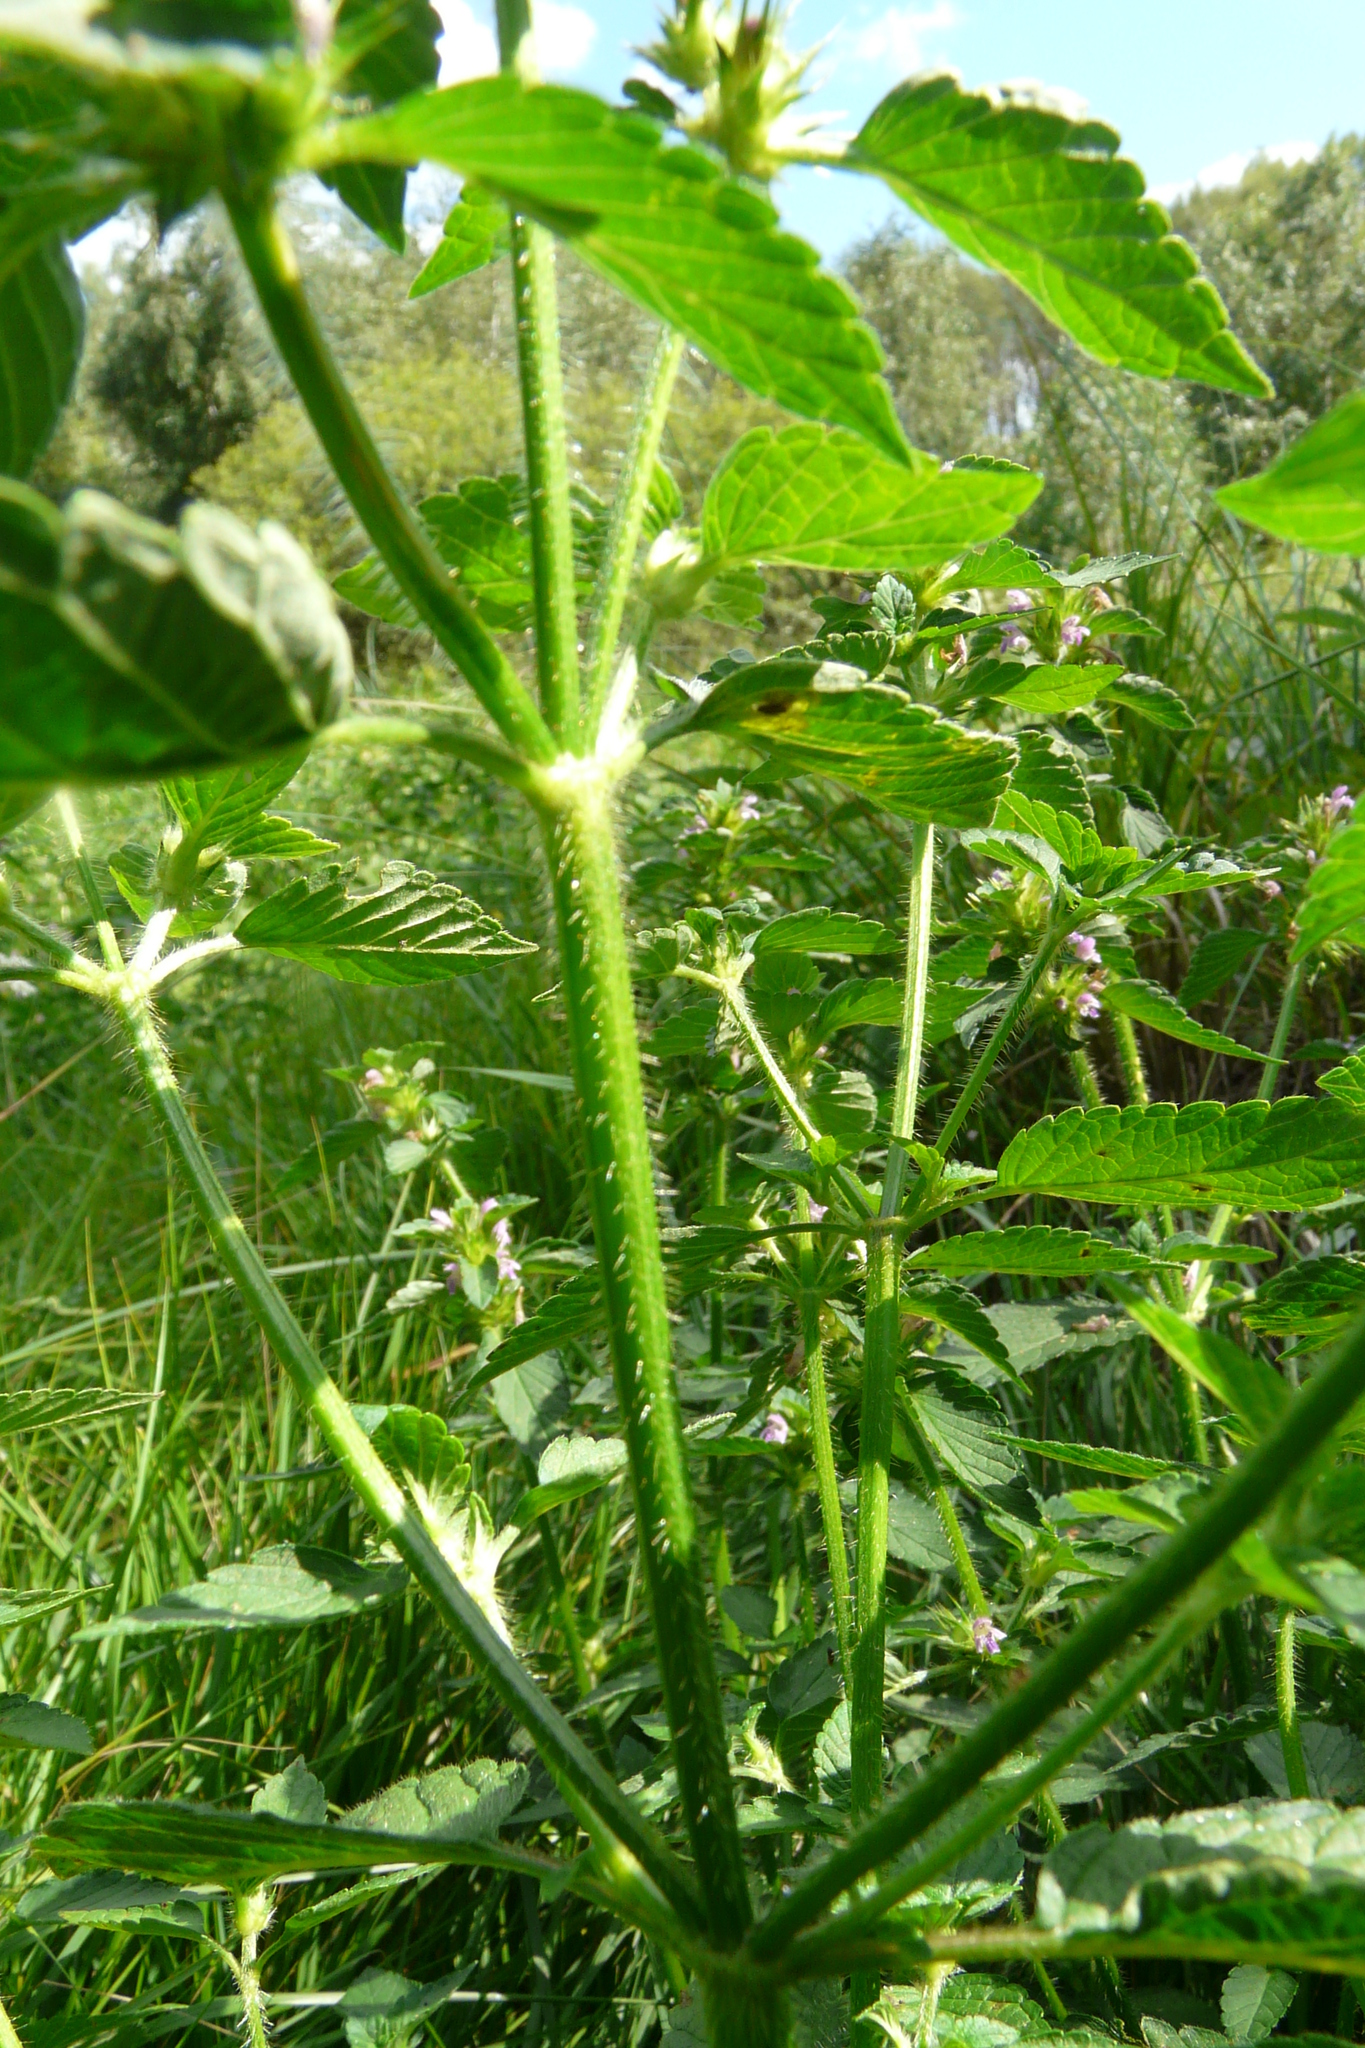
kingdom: Plantae
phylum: Tracheophyta
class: Magnoliopsida
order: Lamiales
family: Lamiaceae
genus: Galeopsis
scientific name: Galeopsis bifida
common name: Bifid hemp-nettle
